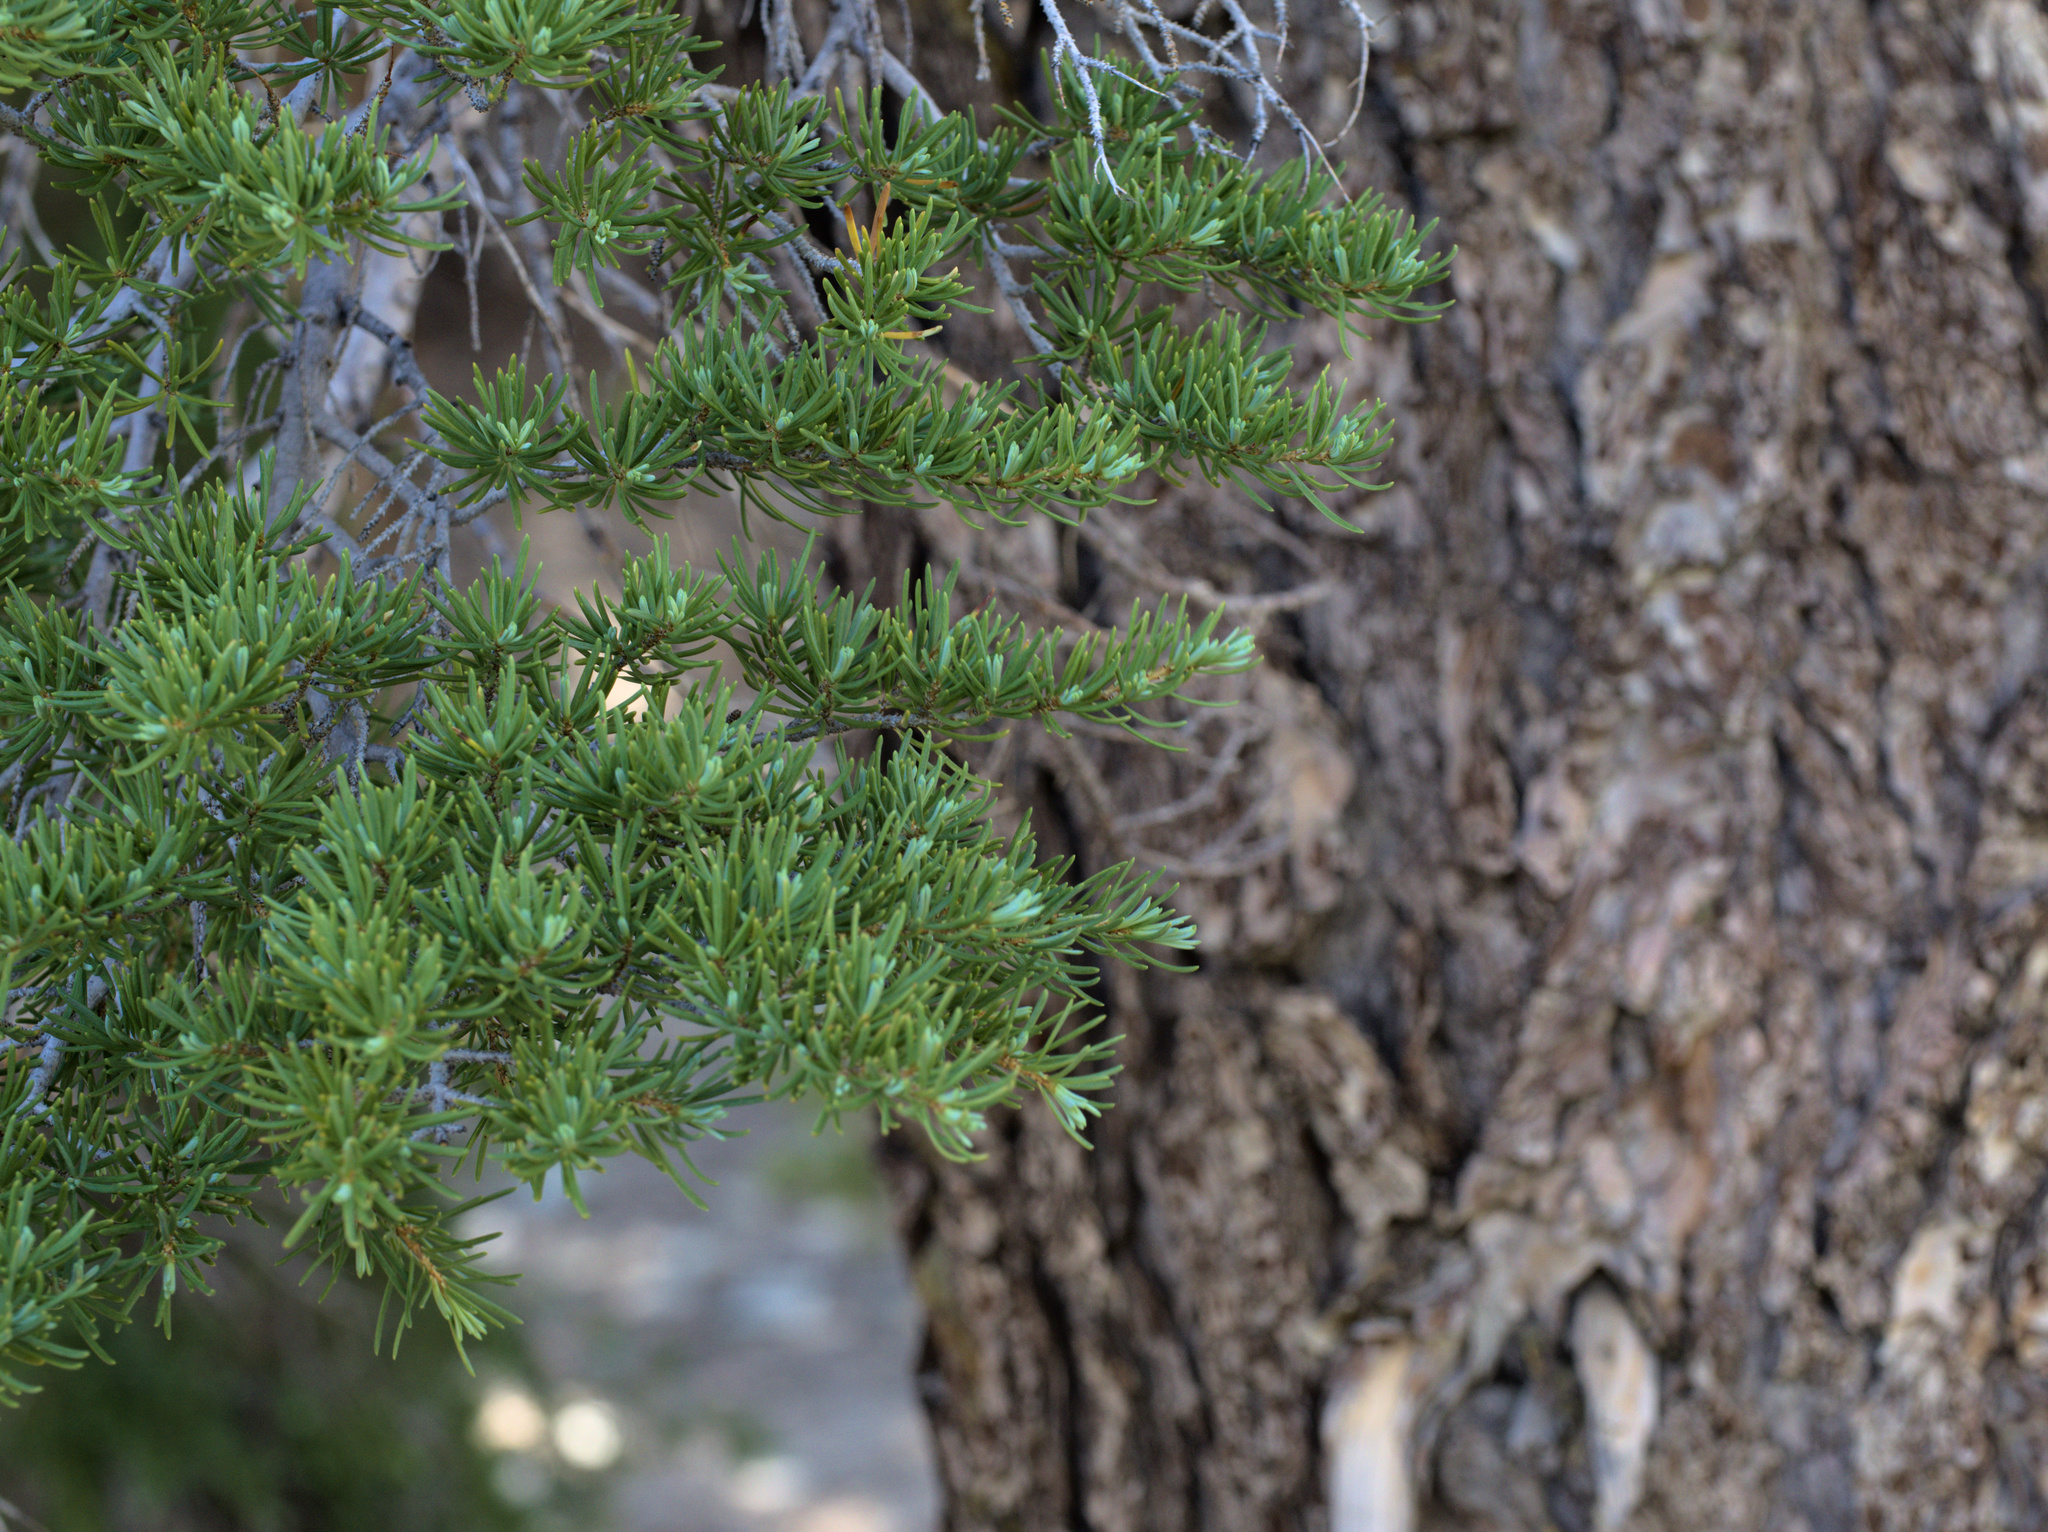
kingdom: Plantae
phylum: Tracheophyta
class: Pinopsida
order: Pinales
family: Pinaceae
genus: Tsuga
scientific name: Tsuga mertensiana
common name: Mountain hemlock
